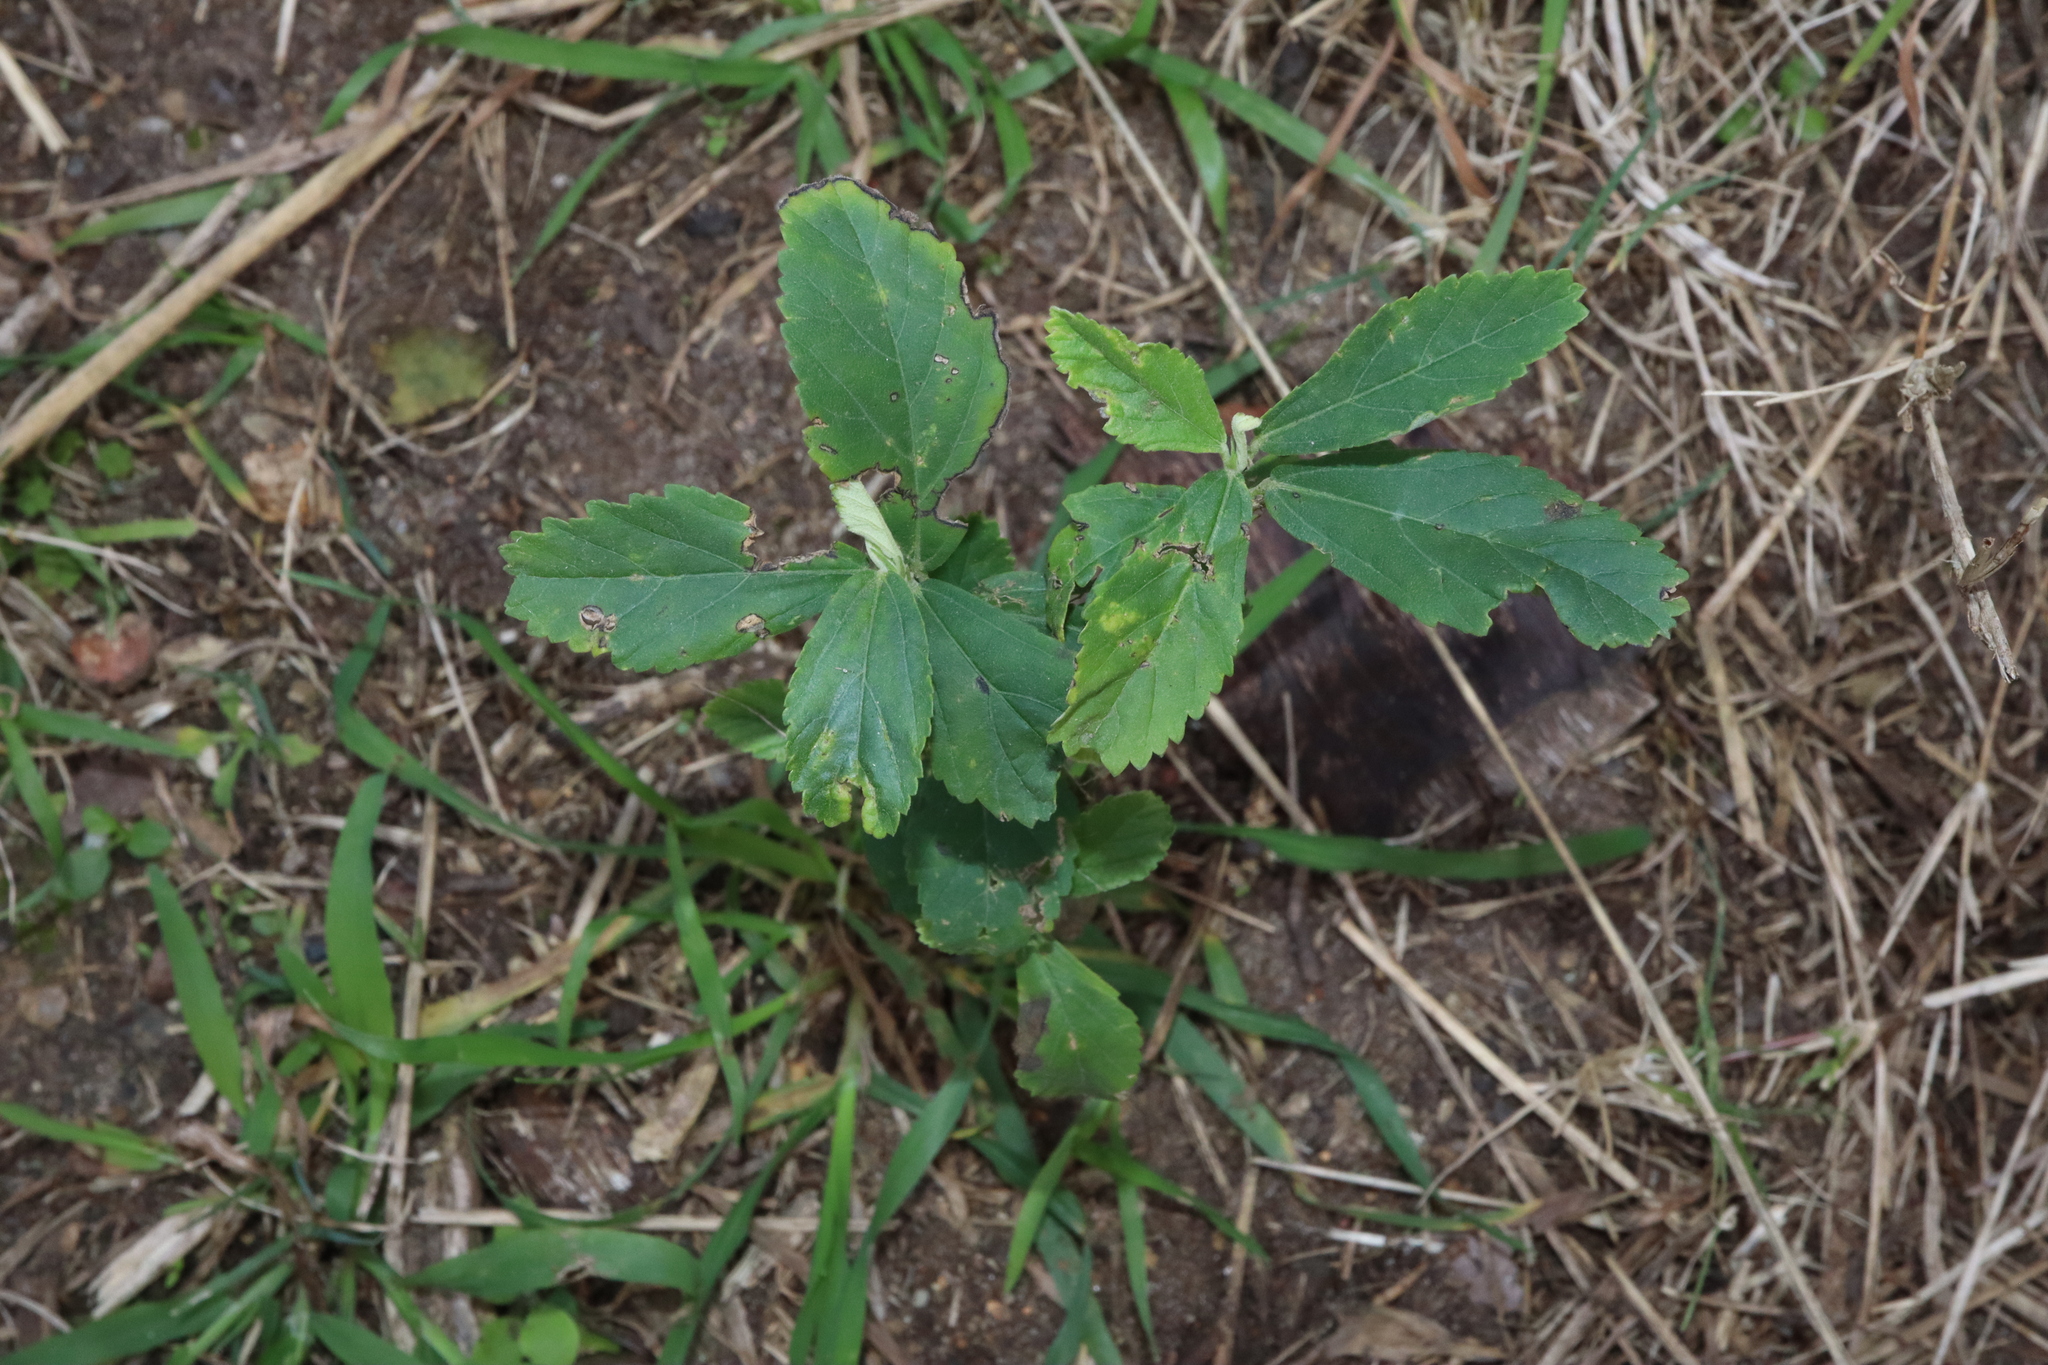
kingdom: Plantae
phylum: Tracheophyta
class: Magnoliopsida
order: Malvales
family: Malvaceae
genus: Sida
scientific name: Sida rhombifolia
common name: Queensland-hemp
